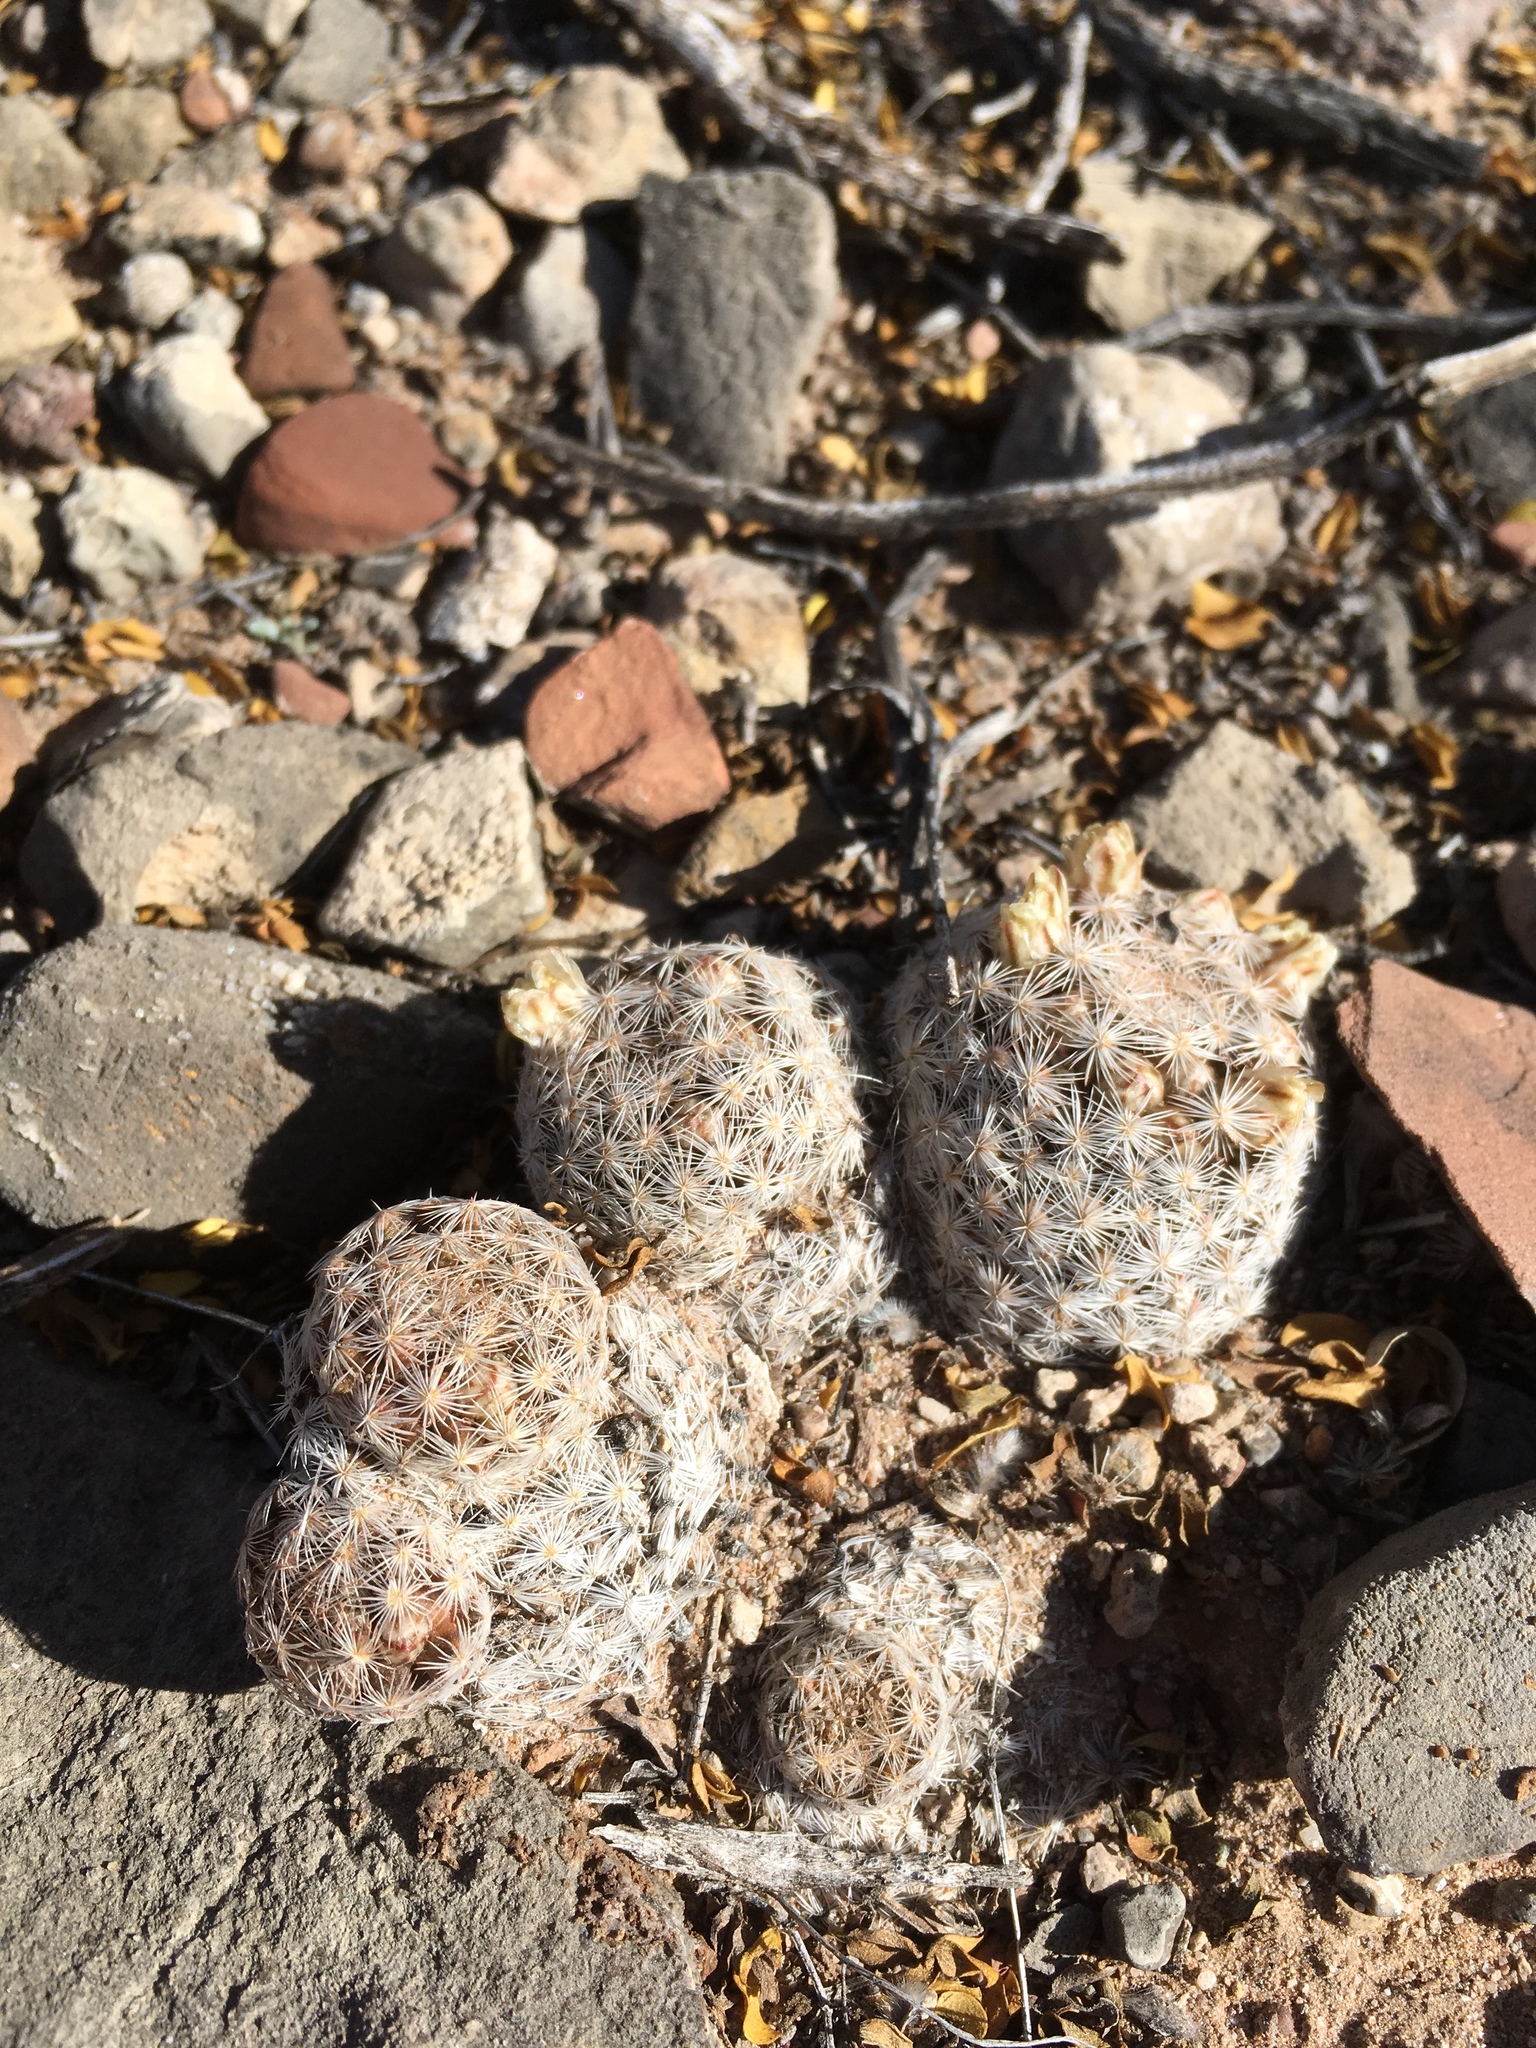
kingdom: Plantae
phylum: Tracheophyta
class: Magnoliopsida
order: Caryophyllales
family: Cactaceae
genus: Mammillaria
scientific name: Mammillaria lasiacantha
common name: Lace-spine nipple cactus
